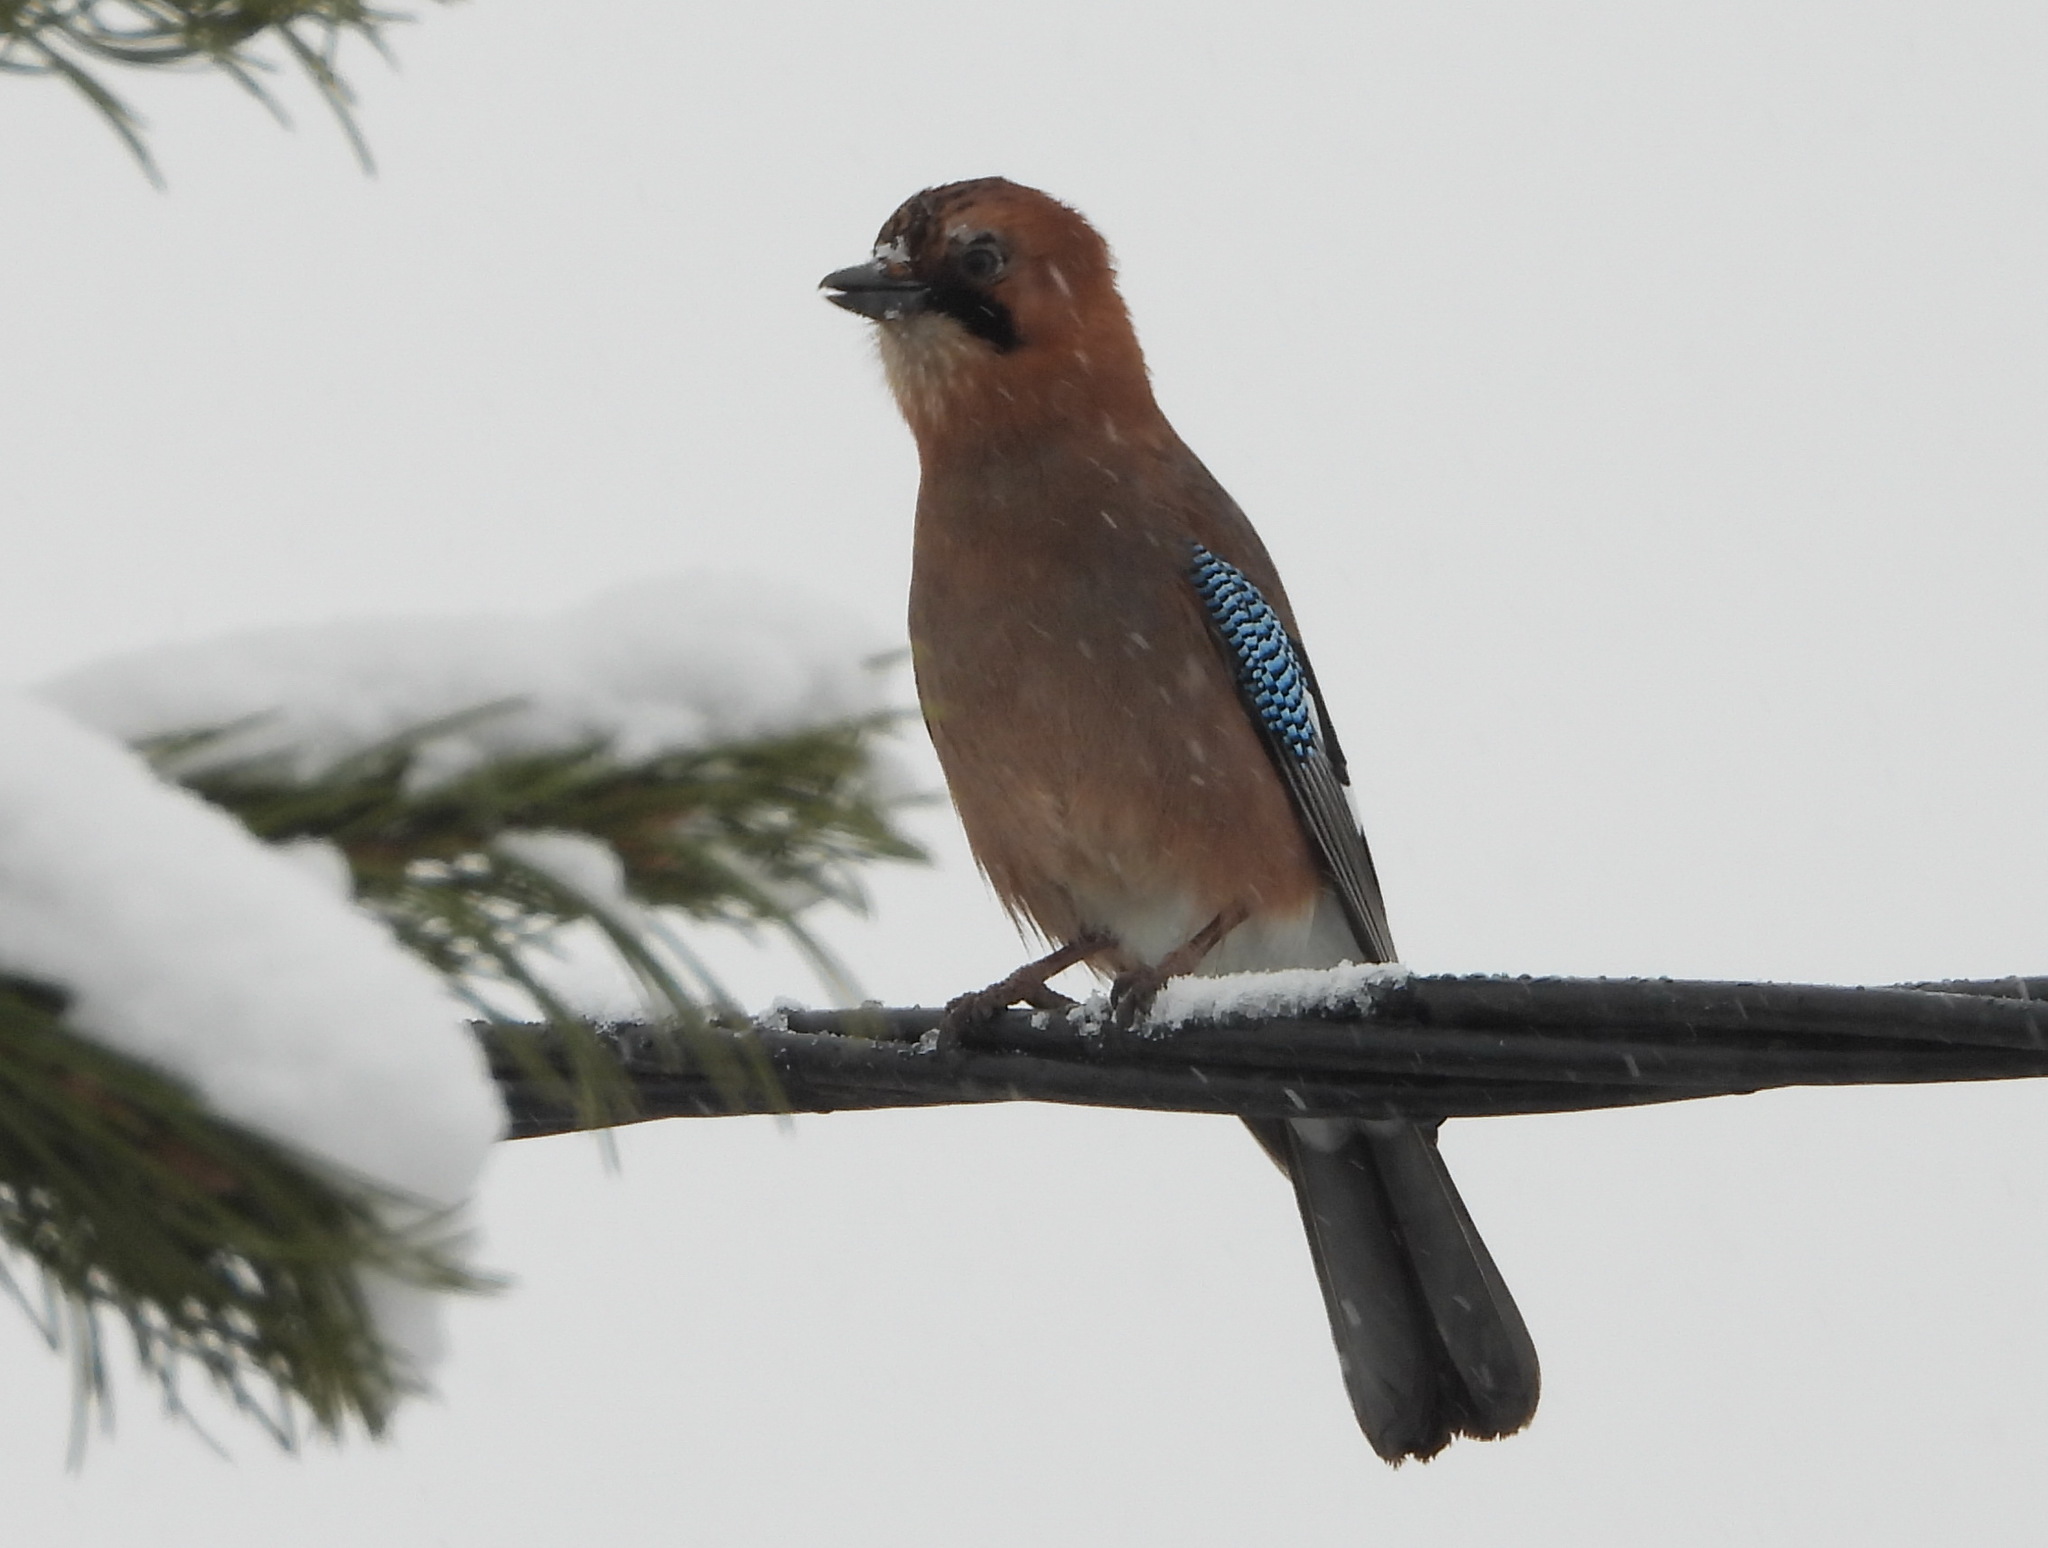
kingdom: Animalia
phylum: Chordata
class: Aves
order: Passeriformes
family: Corvidae
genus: Garrulus
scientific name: Garrulus glandarius
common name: Eurasian jay
